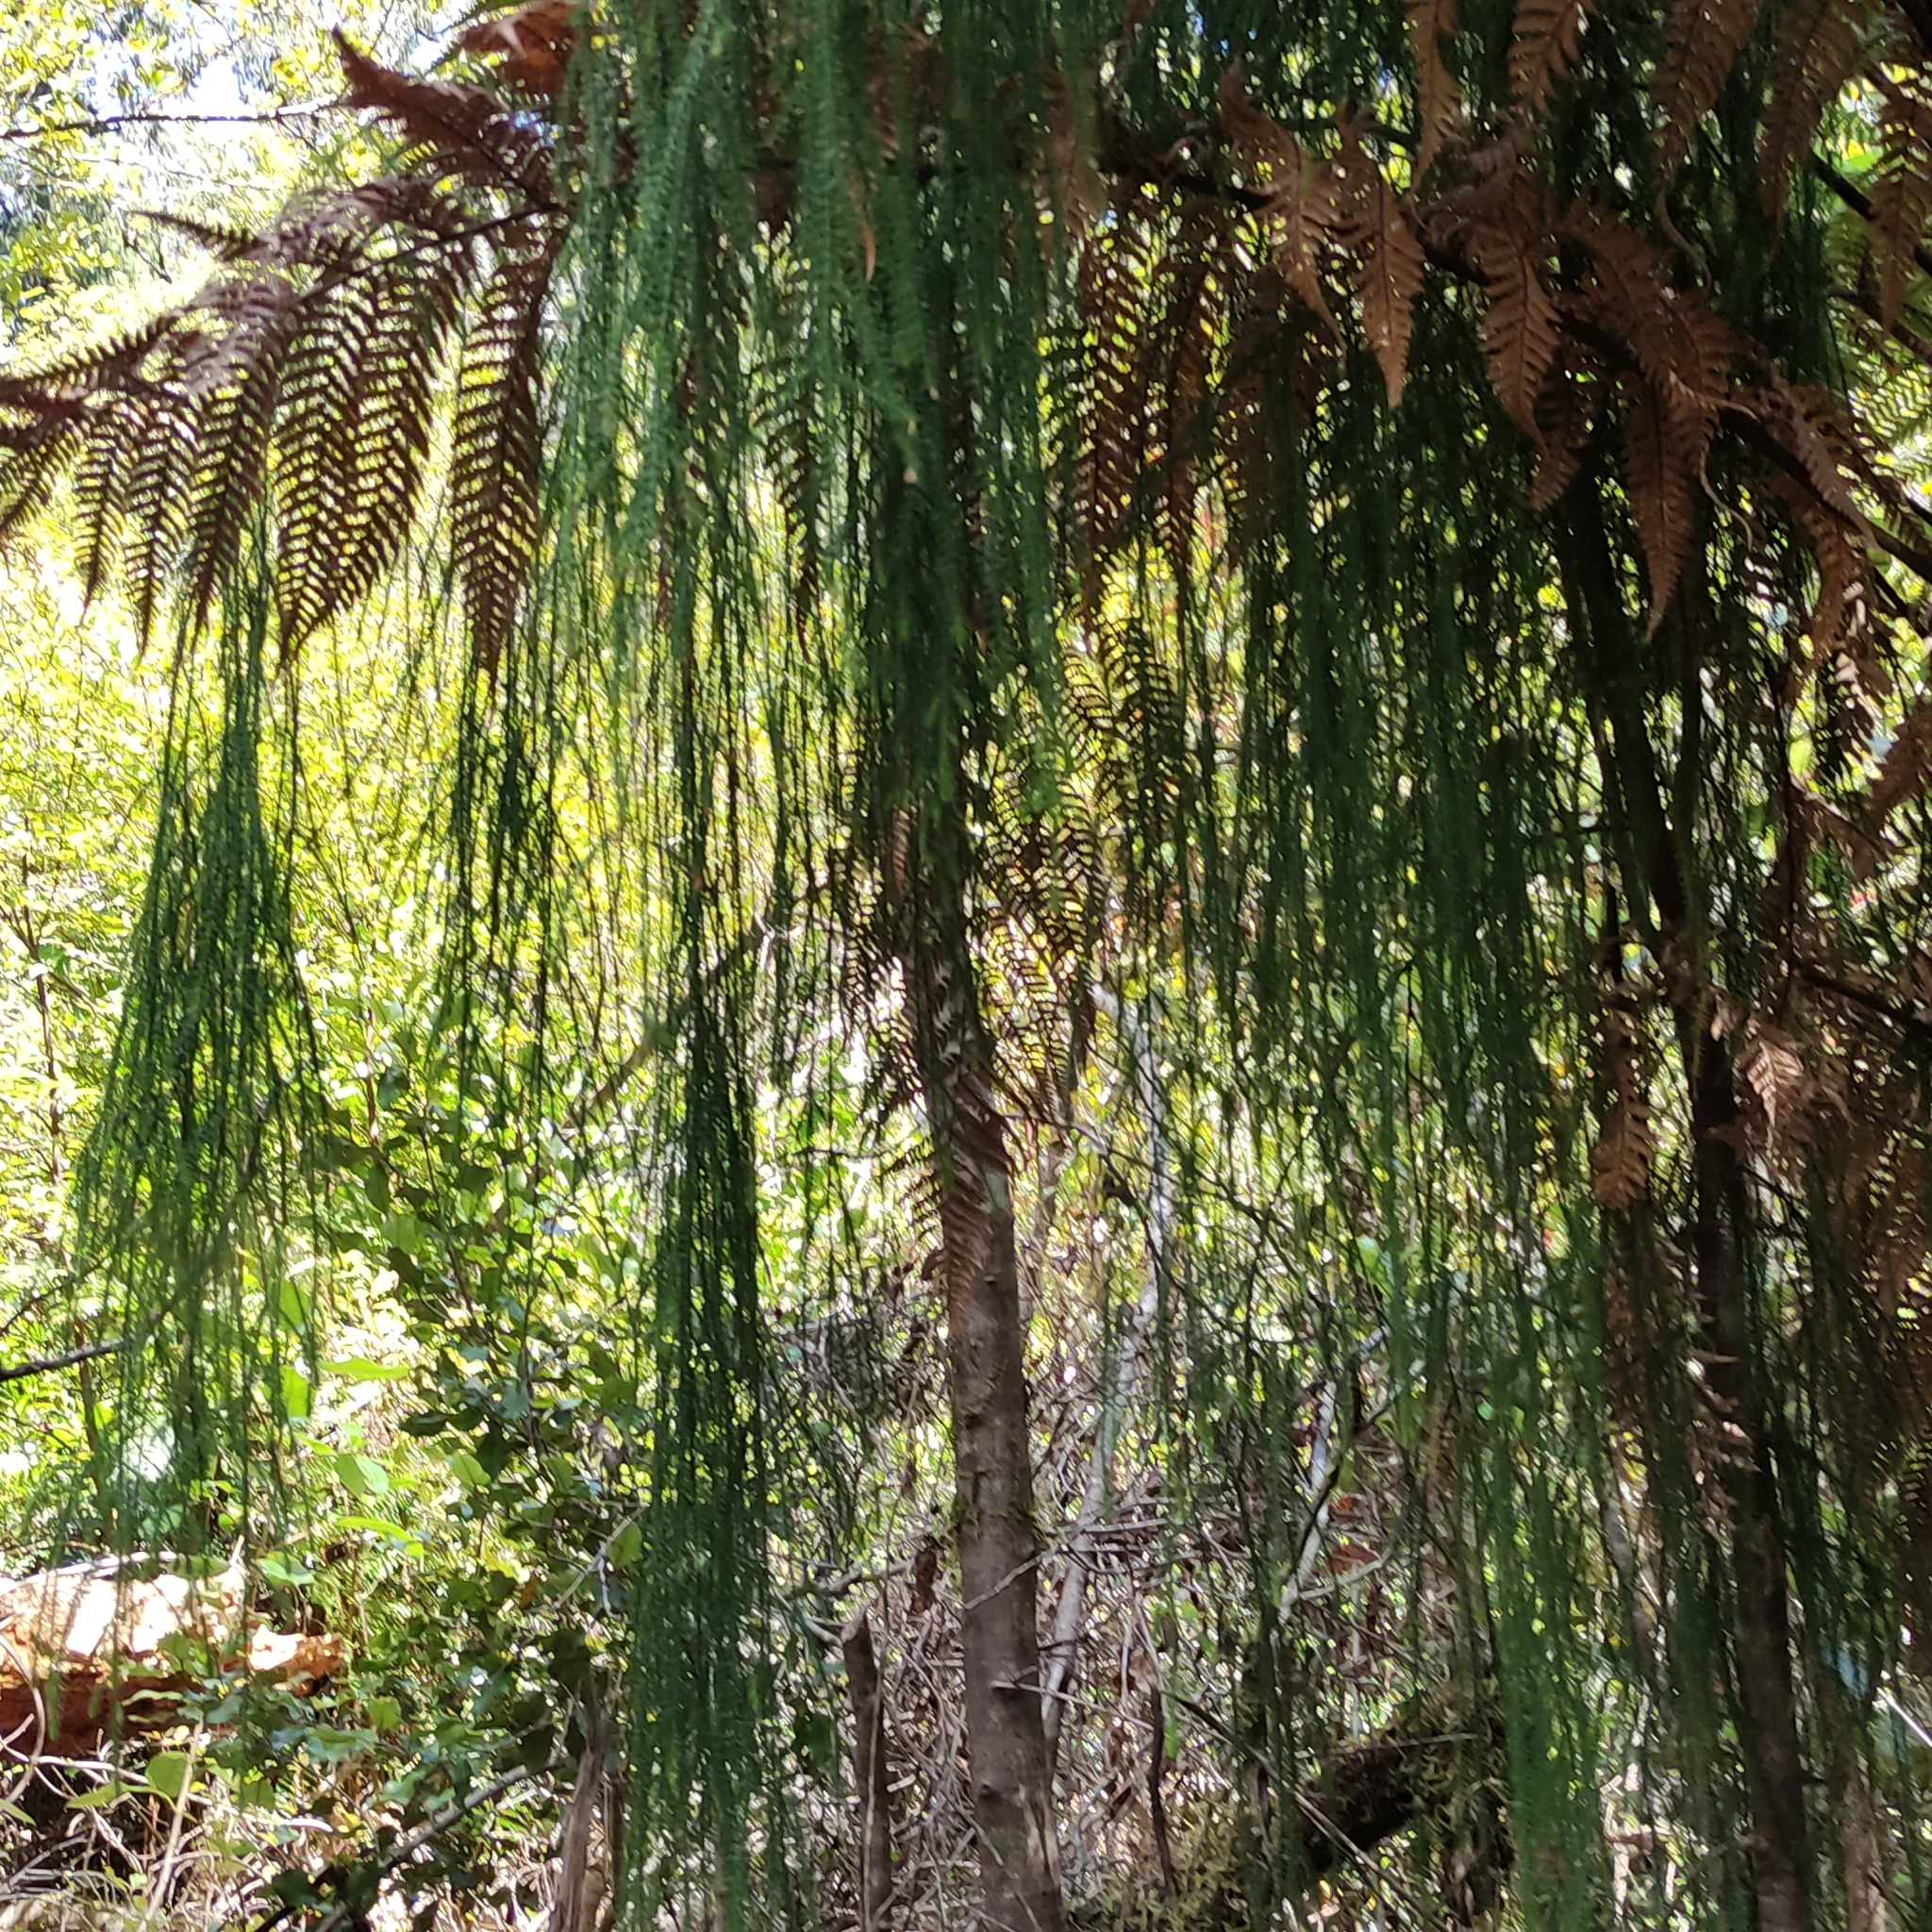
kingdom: Plantae
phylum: Tracheophyta
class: Pinopsida
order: Pinales
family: Podocarpaceae
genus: Dacrydium
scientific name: Dacrydium cupressinum
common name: Red pine
